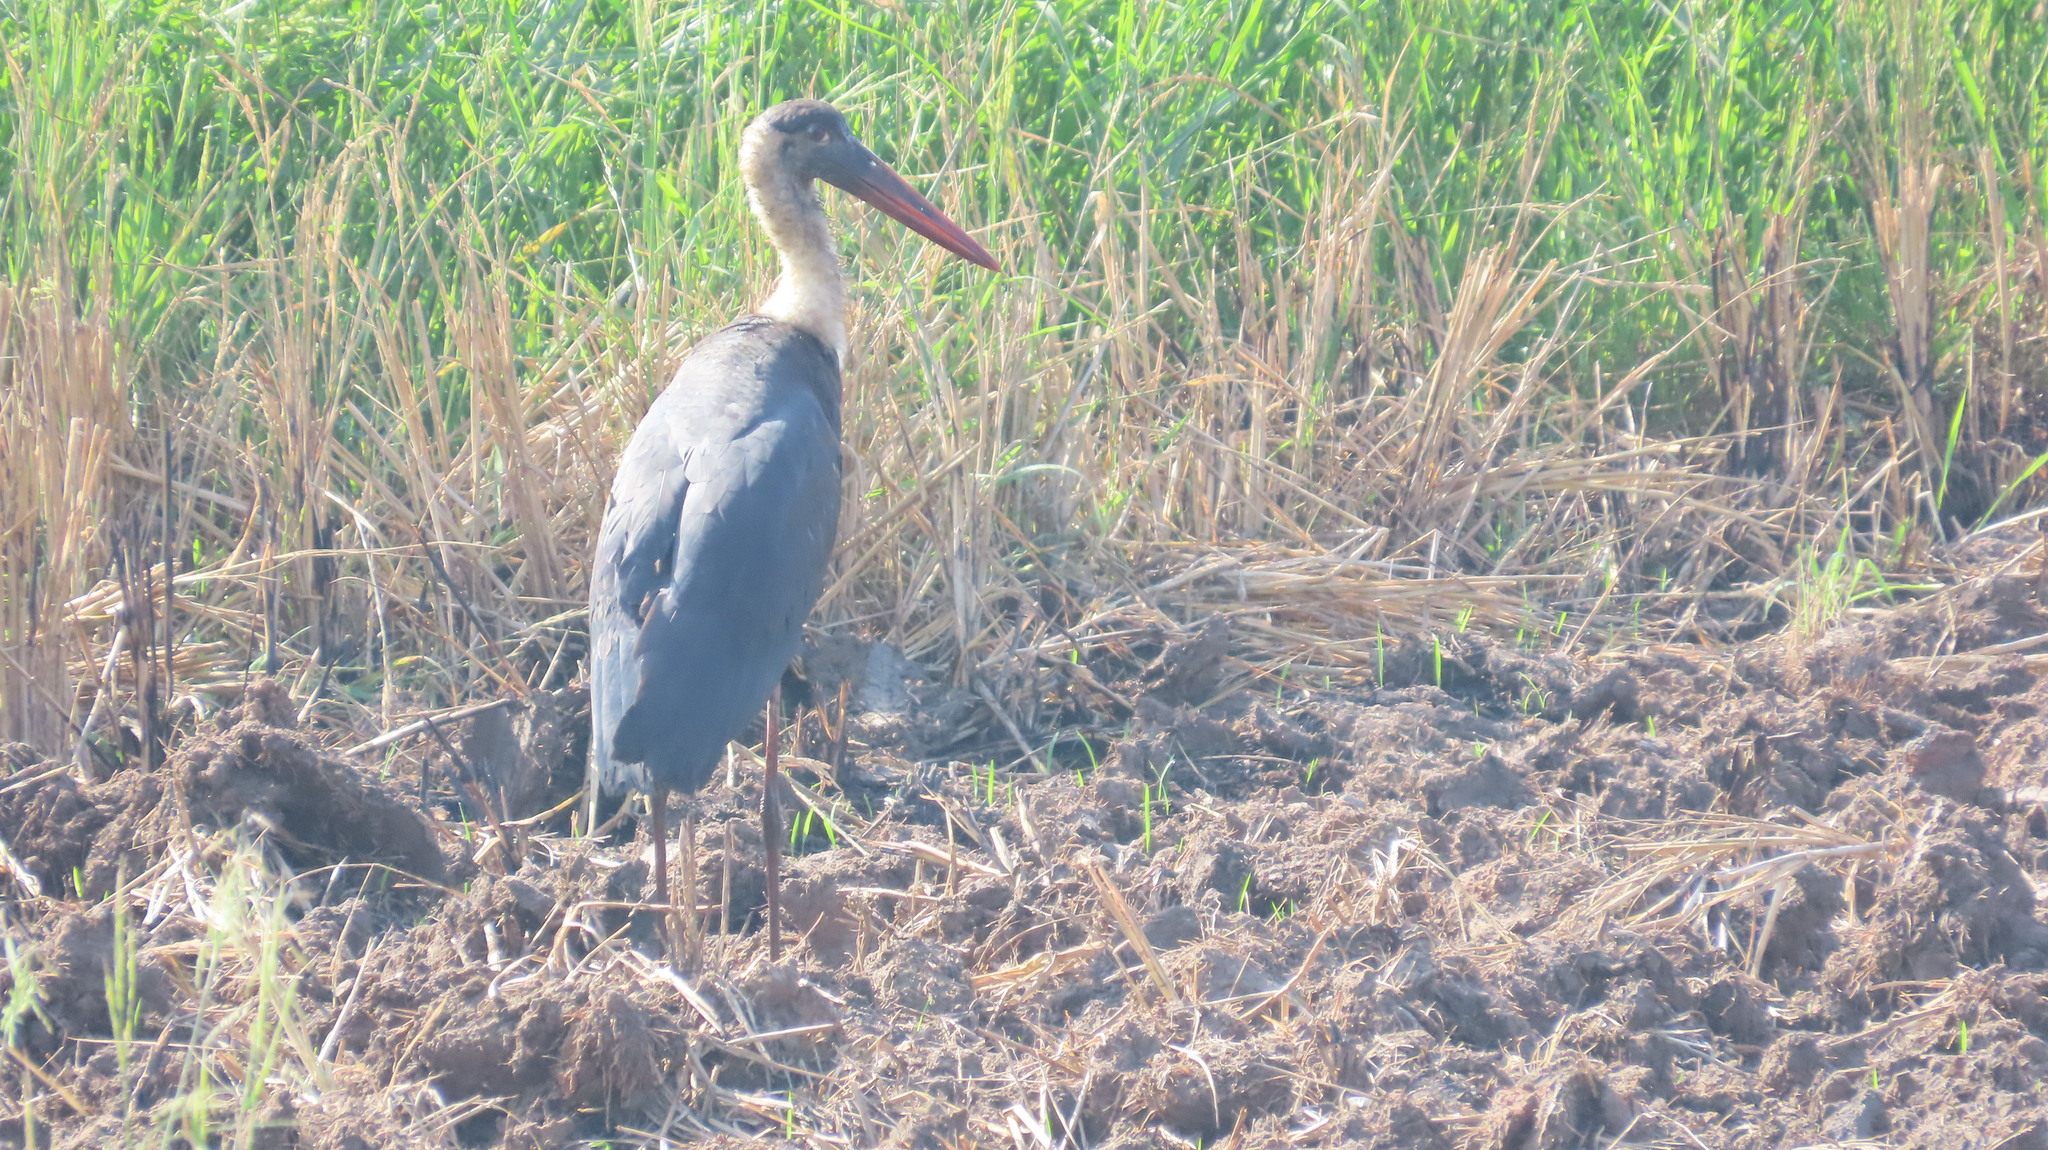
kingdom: Animalia
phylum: Chordata
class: Aves
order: Ciconiiformes
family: Ciconiidae
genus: Ciconia
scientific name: Ciconia episcopus
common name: Woolly-necked stork
